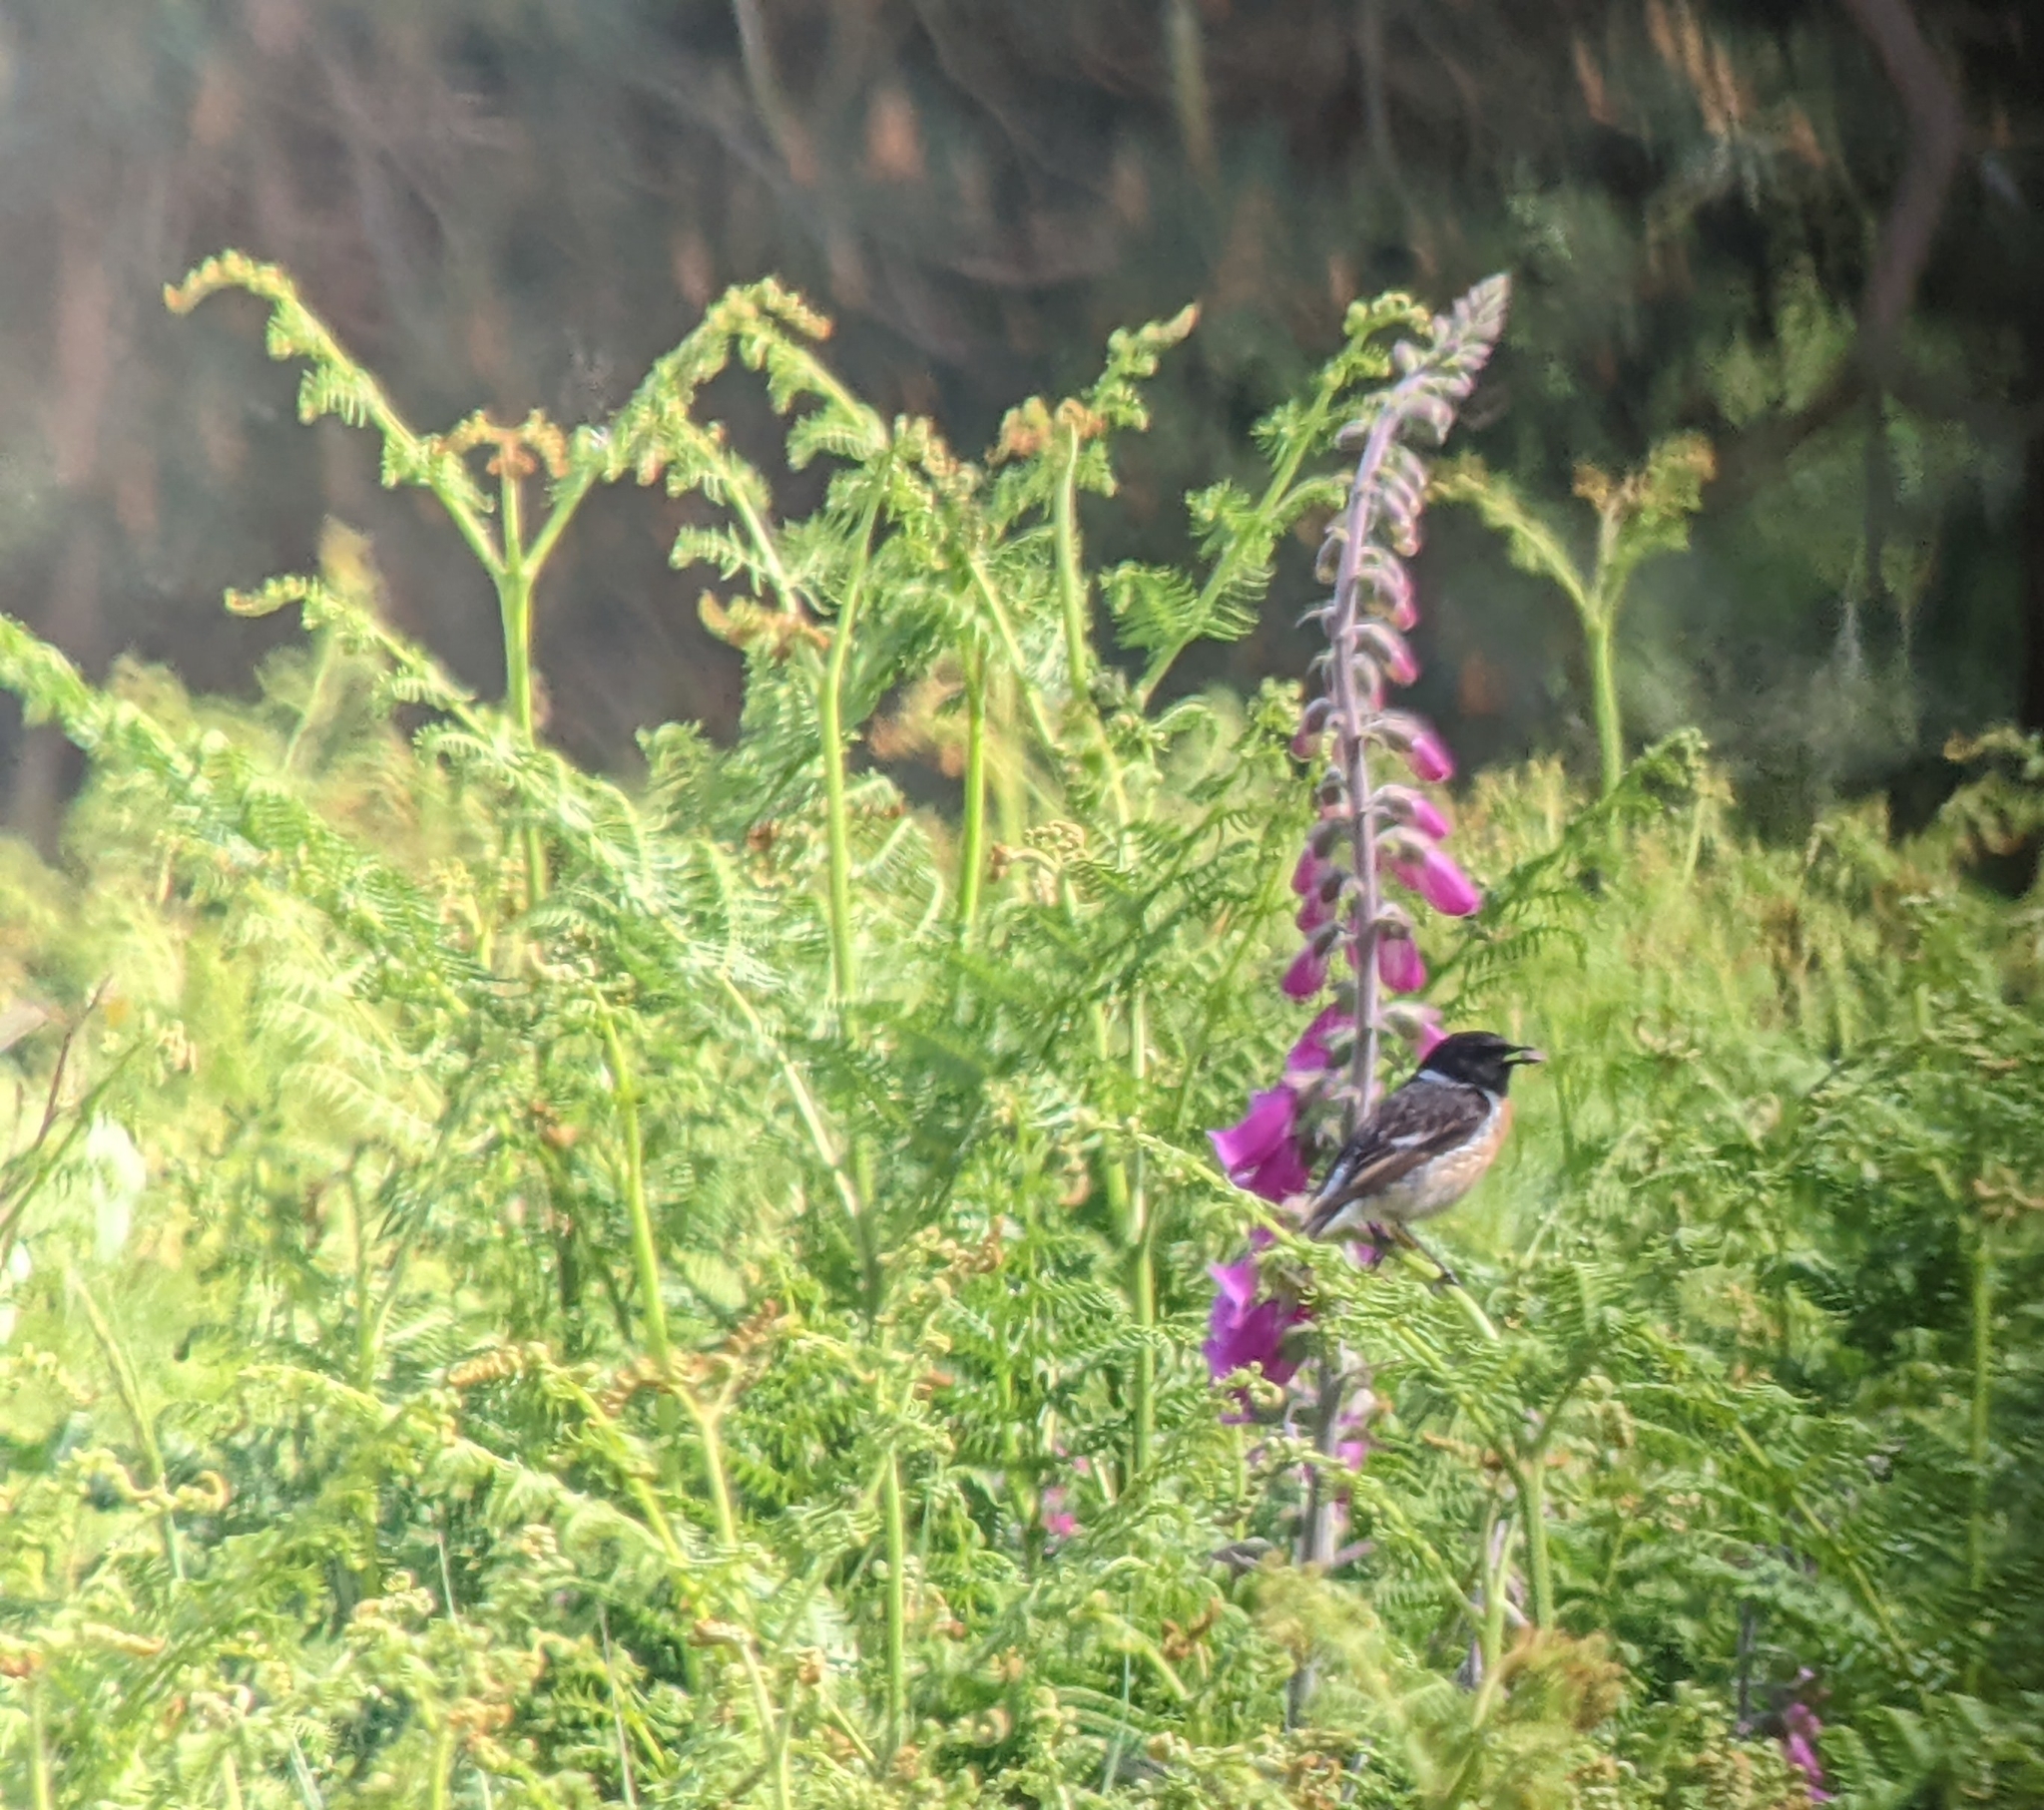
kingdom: Animalia
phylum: Chordata
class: Aves
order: Passeriformes
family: Muscicapidae
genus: Saxicola
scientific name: Saxicola rubicola
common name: European stonechat
